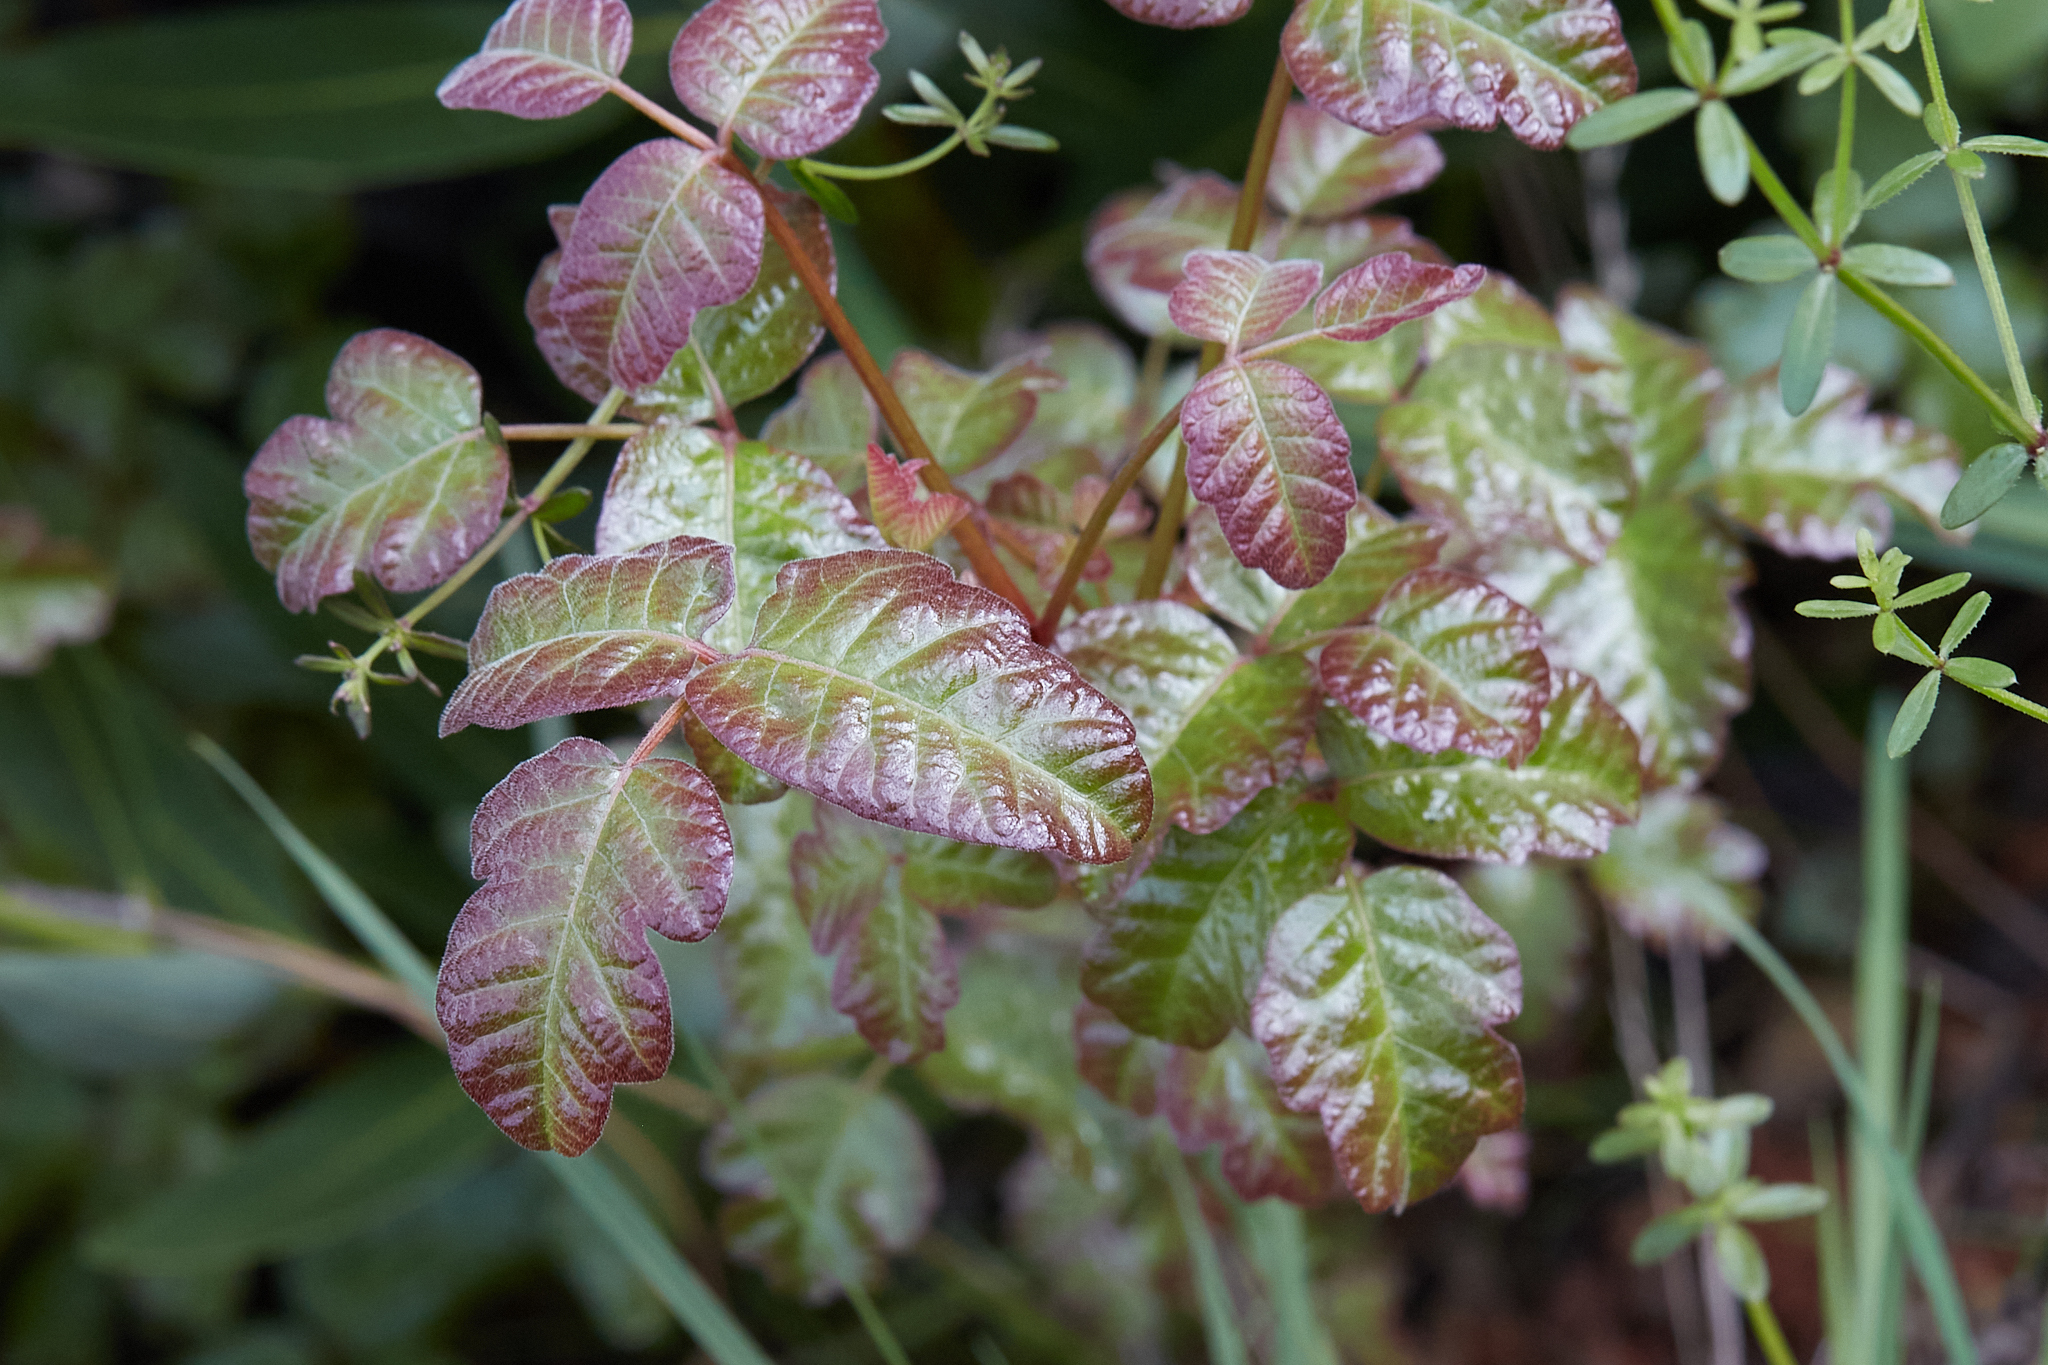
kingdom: Plantae
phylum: Tracheophyta
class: Magnoliopsida
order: Sapindales
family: Anacardiaceae
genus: Toxicodendron
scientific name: Toxicodendron diversilobum
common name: Pacific poison-oak
